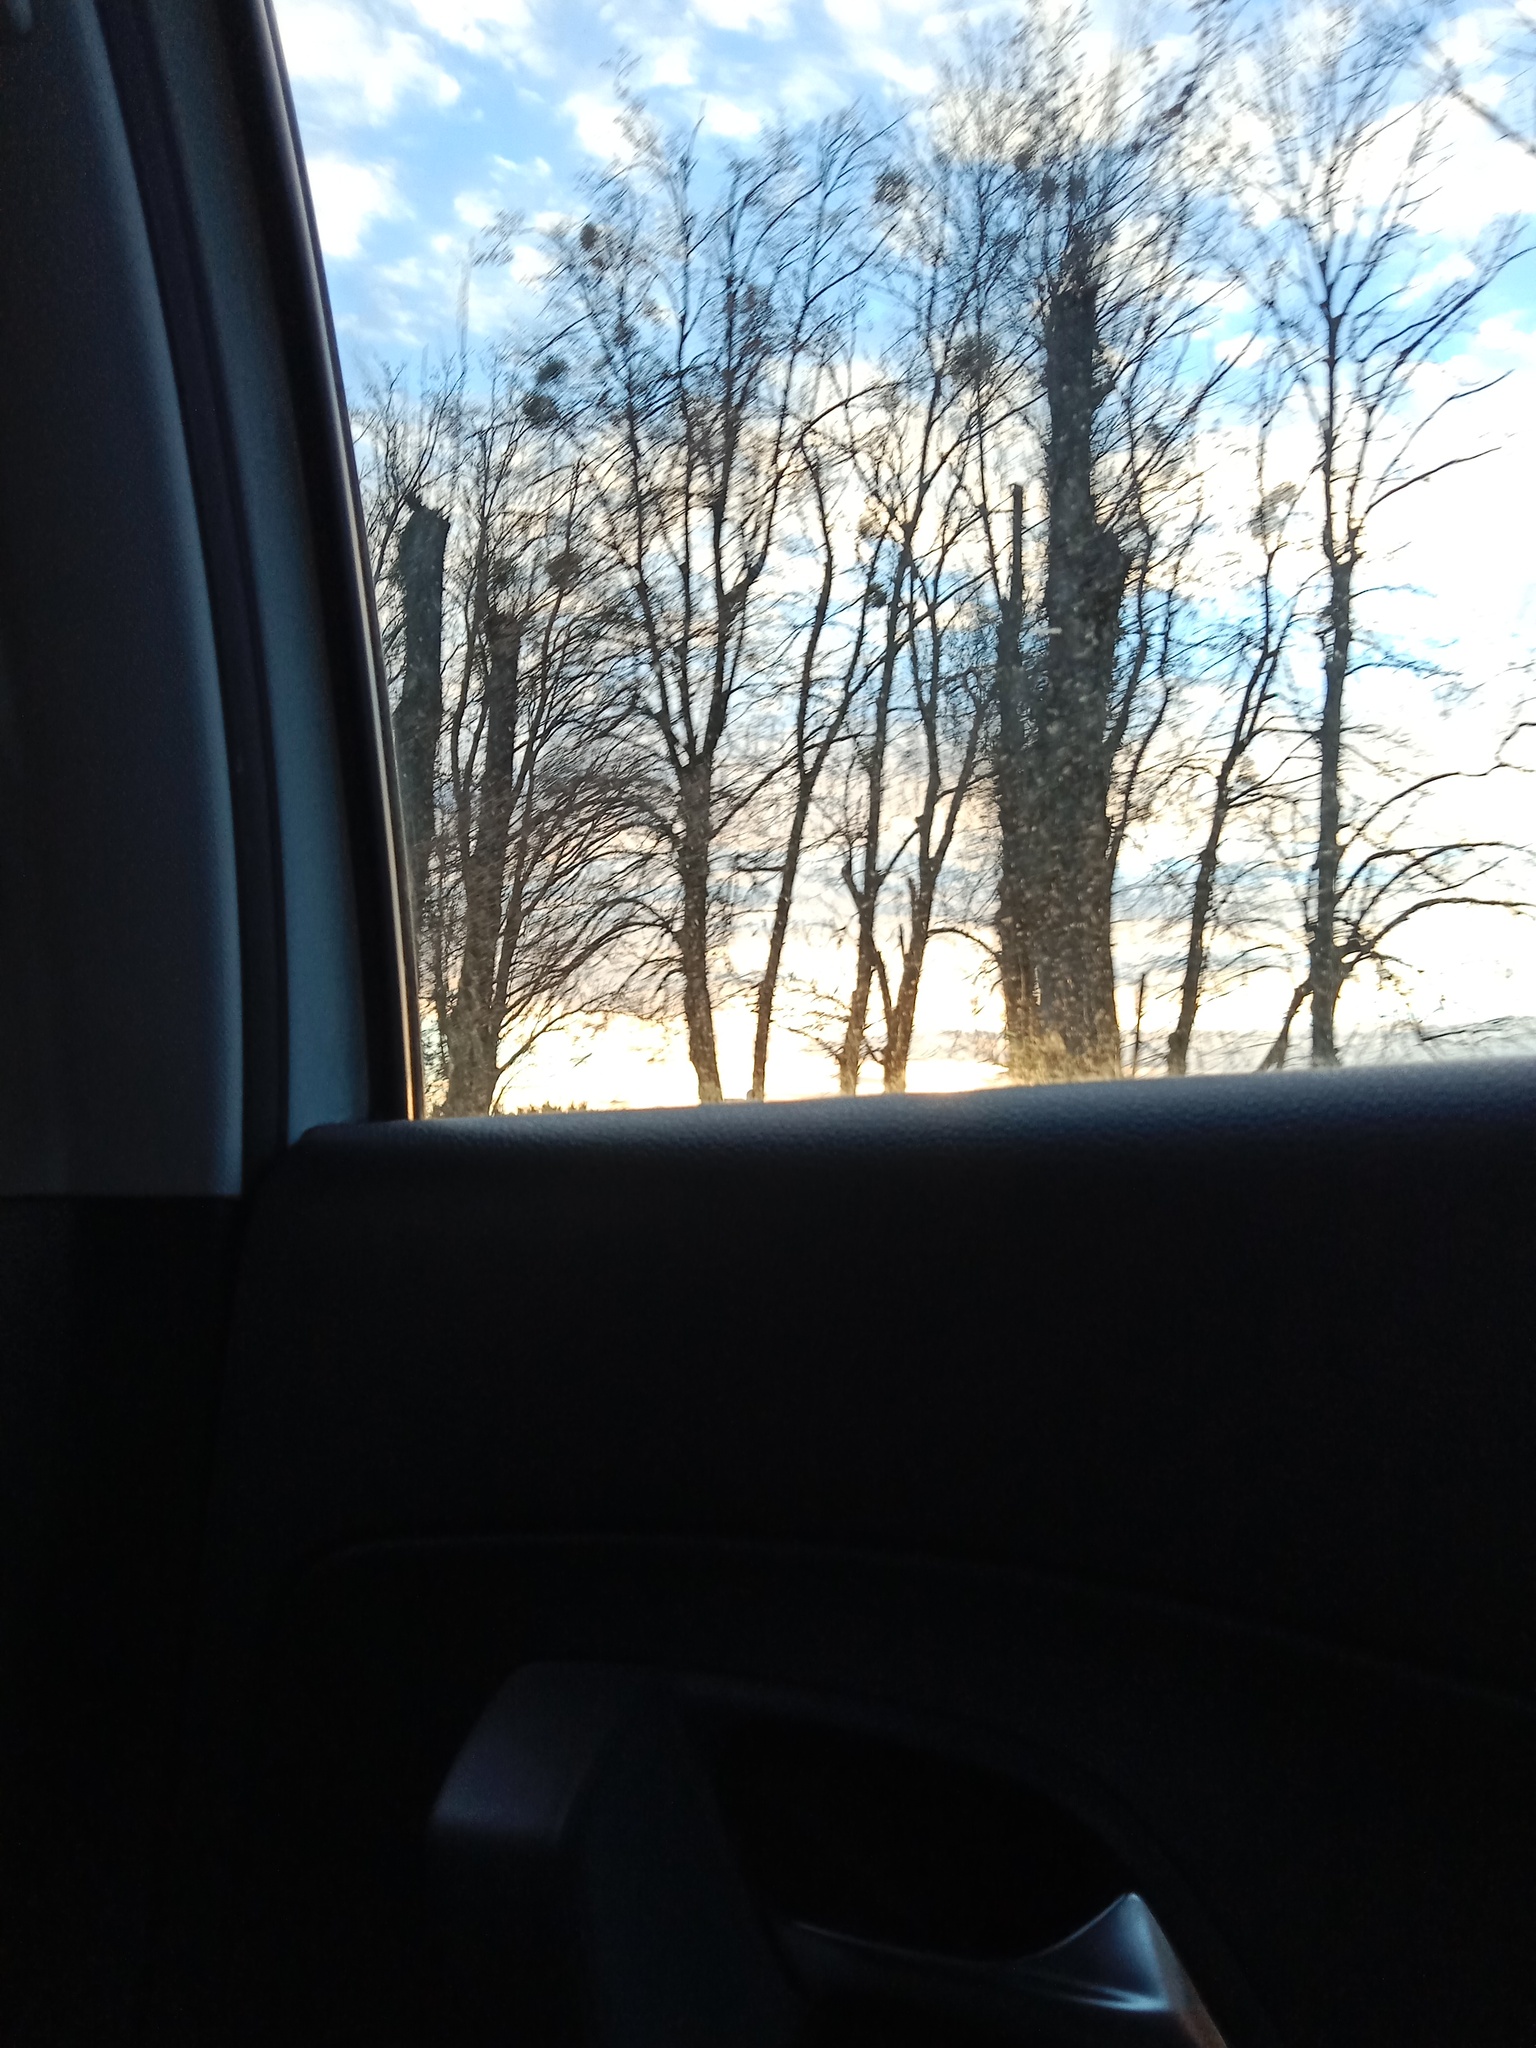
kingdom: Plantae
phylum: Tracheophyta
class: Magnoliopsida
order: Santalales
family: Viscaceae
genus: Viscum
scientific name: Viscum album
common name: Mistletoe
